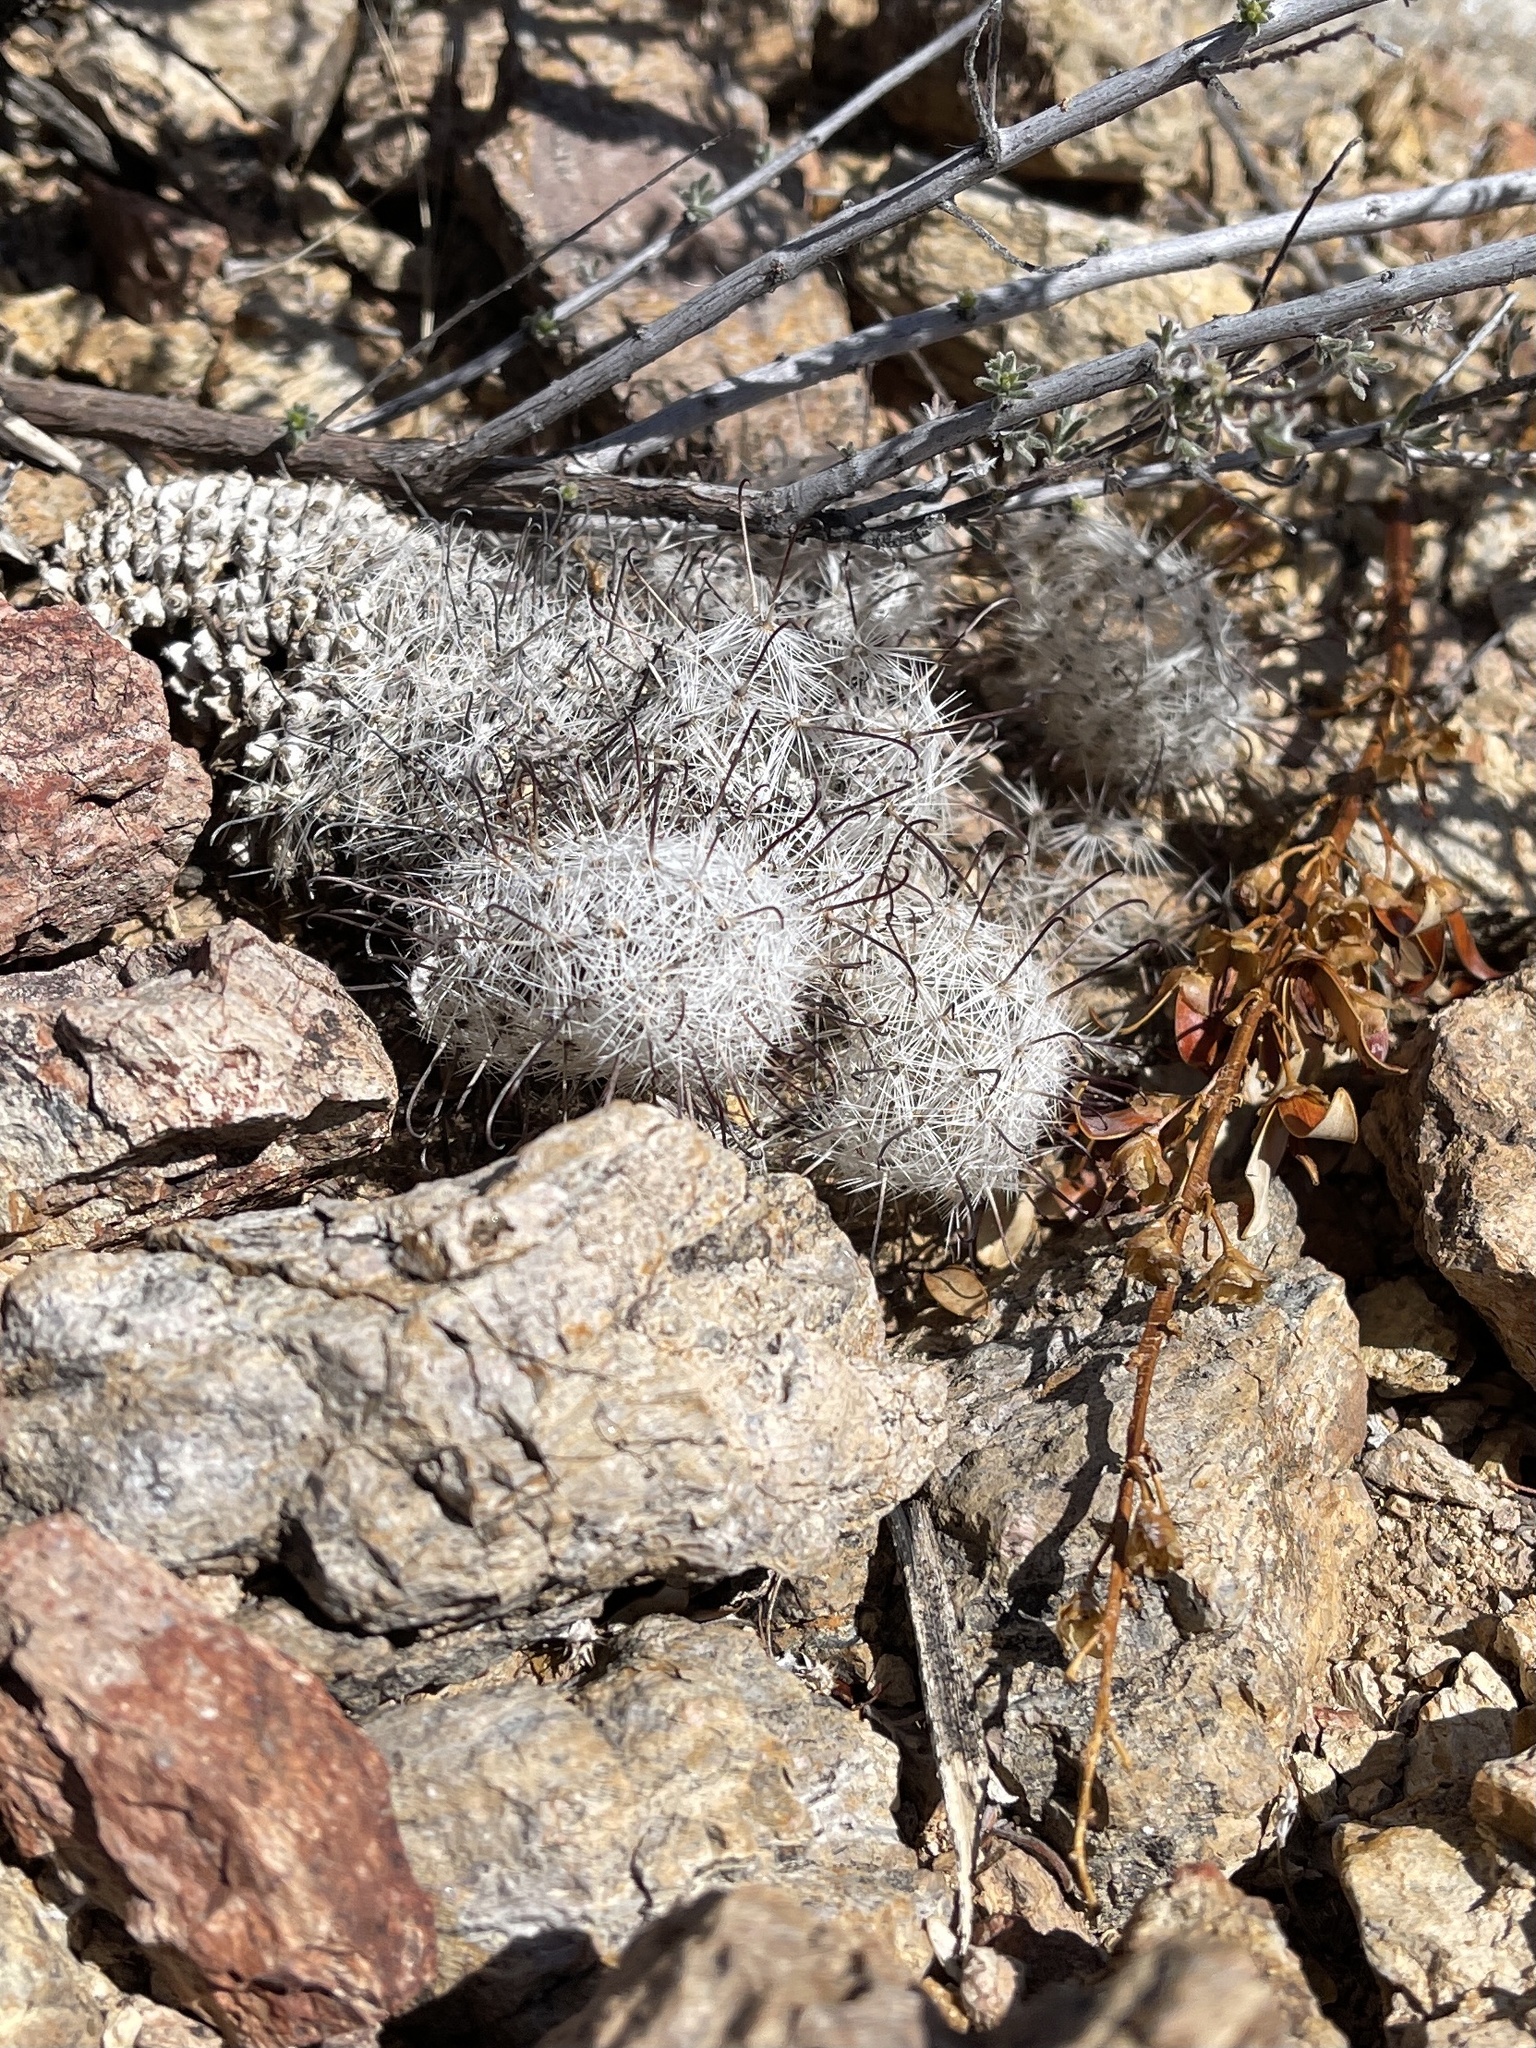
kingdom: Plantae
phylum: Tracheophyta
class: Magnoliopsida
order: Caryophyllales
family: Cactaceae
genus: Cochemiea
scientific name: Cochemiea grahamii
